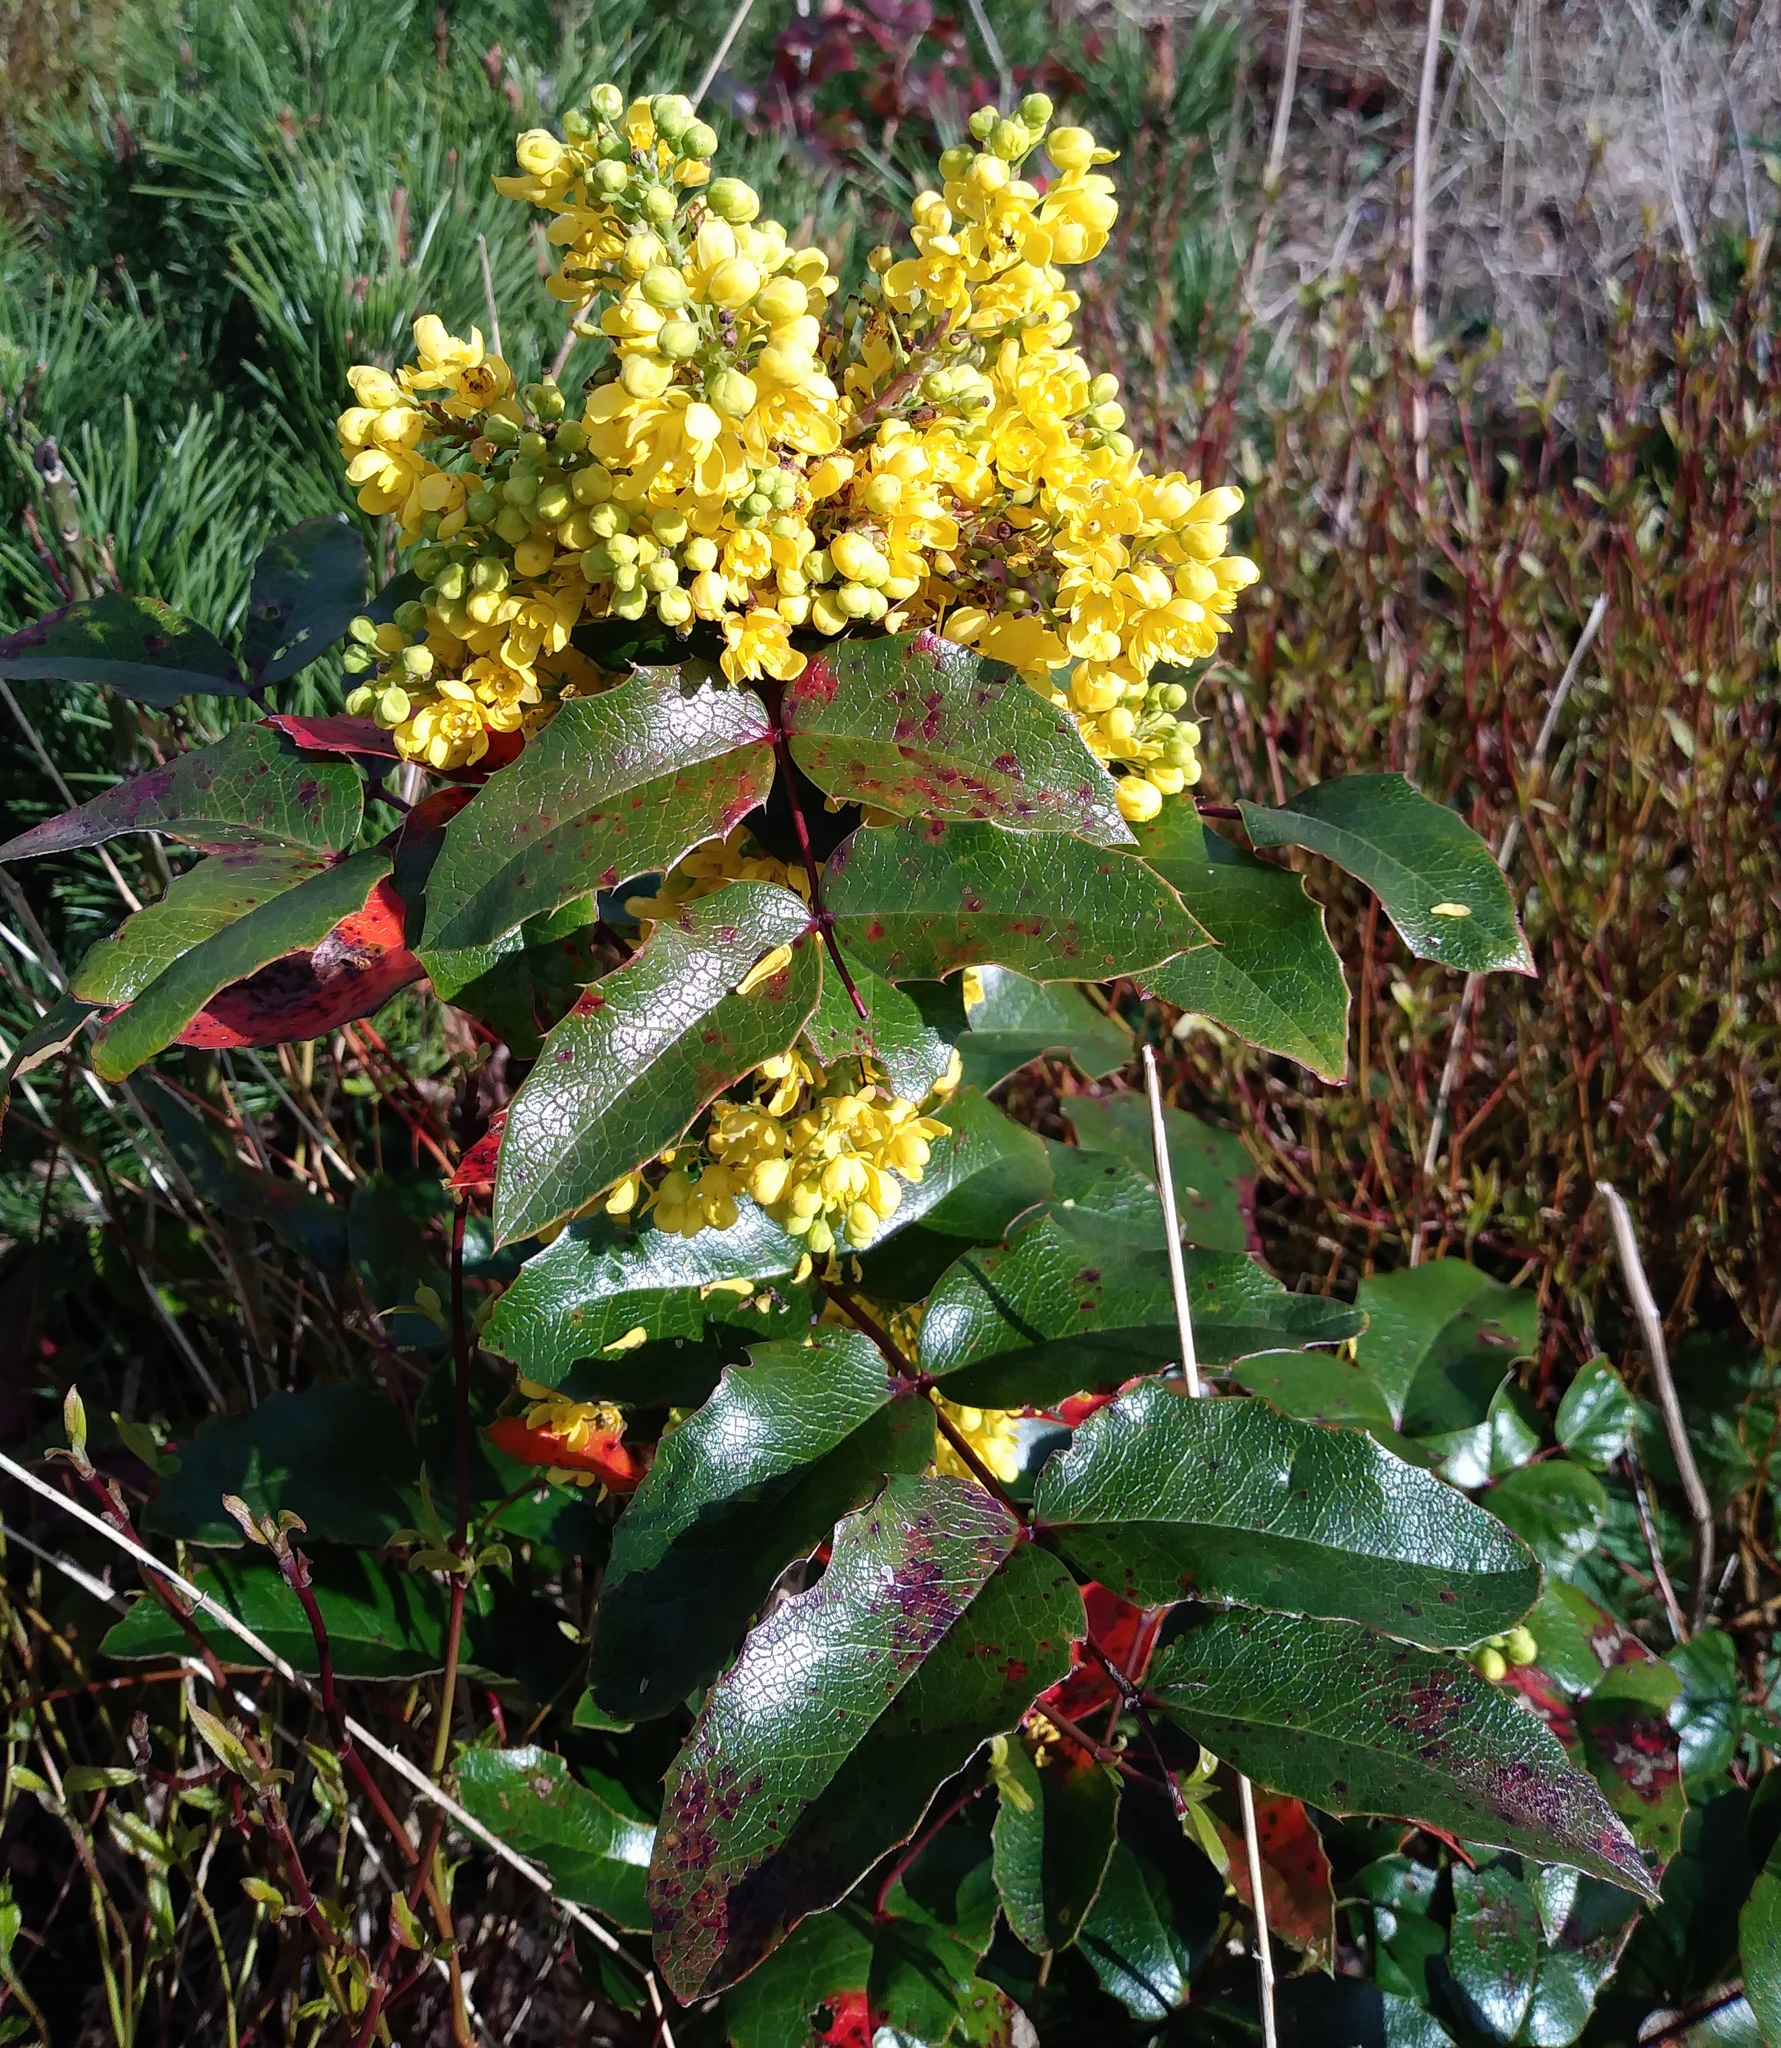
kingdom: Fungi
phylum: Basidiomycota
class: Pucciniomycetes
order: Pucciniales
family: Pucciniaceae
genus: Cumminsiella
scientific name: Cumminsiella mirabilissima
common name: Mahonia rust
